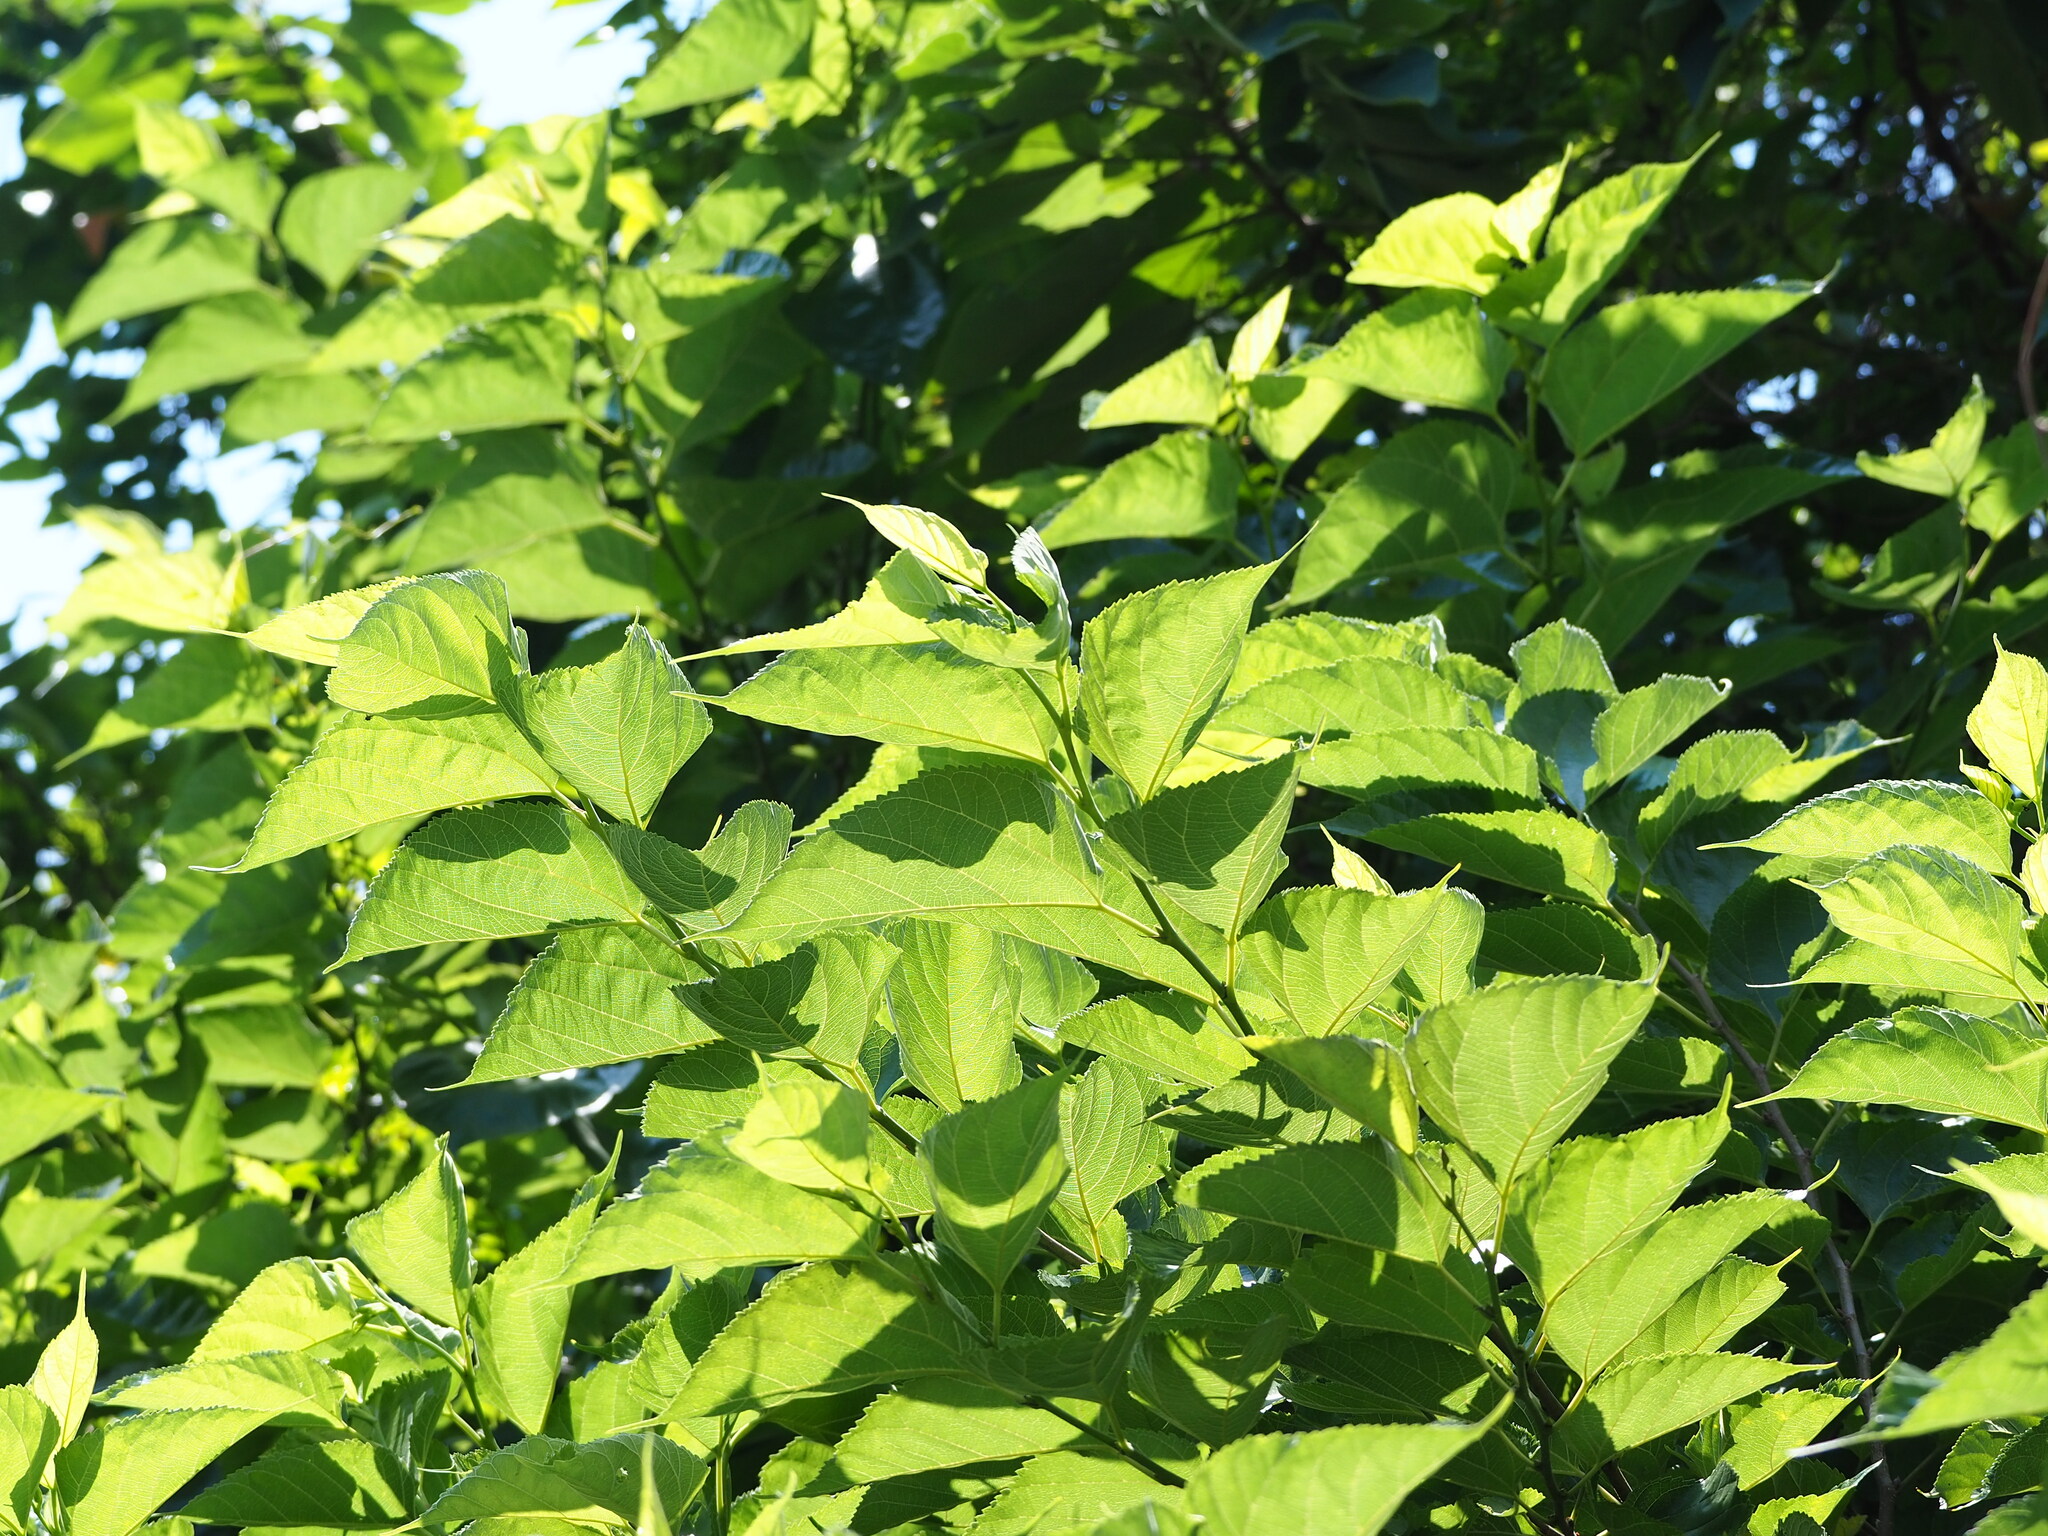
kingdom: Plantae
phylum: Tracheophyta
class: Magnoliopsida
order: Rosales
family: Moraceae
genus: Morus
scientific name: Morus indica
